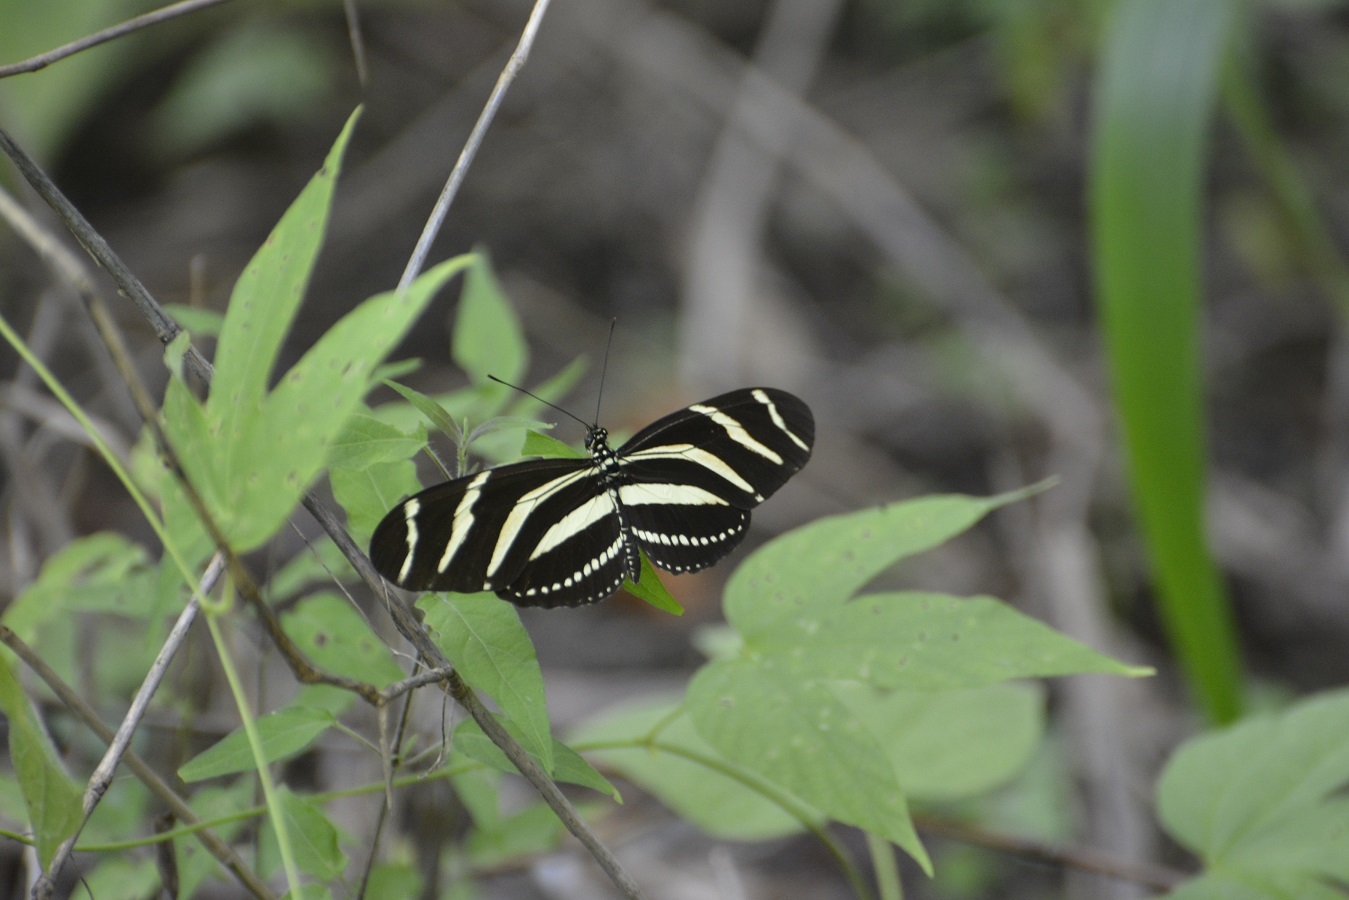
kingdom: Animalia
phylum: Arthropoda
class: Insecta
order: Lepidoptera
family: Nymphalidae
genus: Heliconius
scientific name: Heliconius charithonia
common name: Zebra long wing
